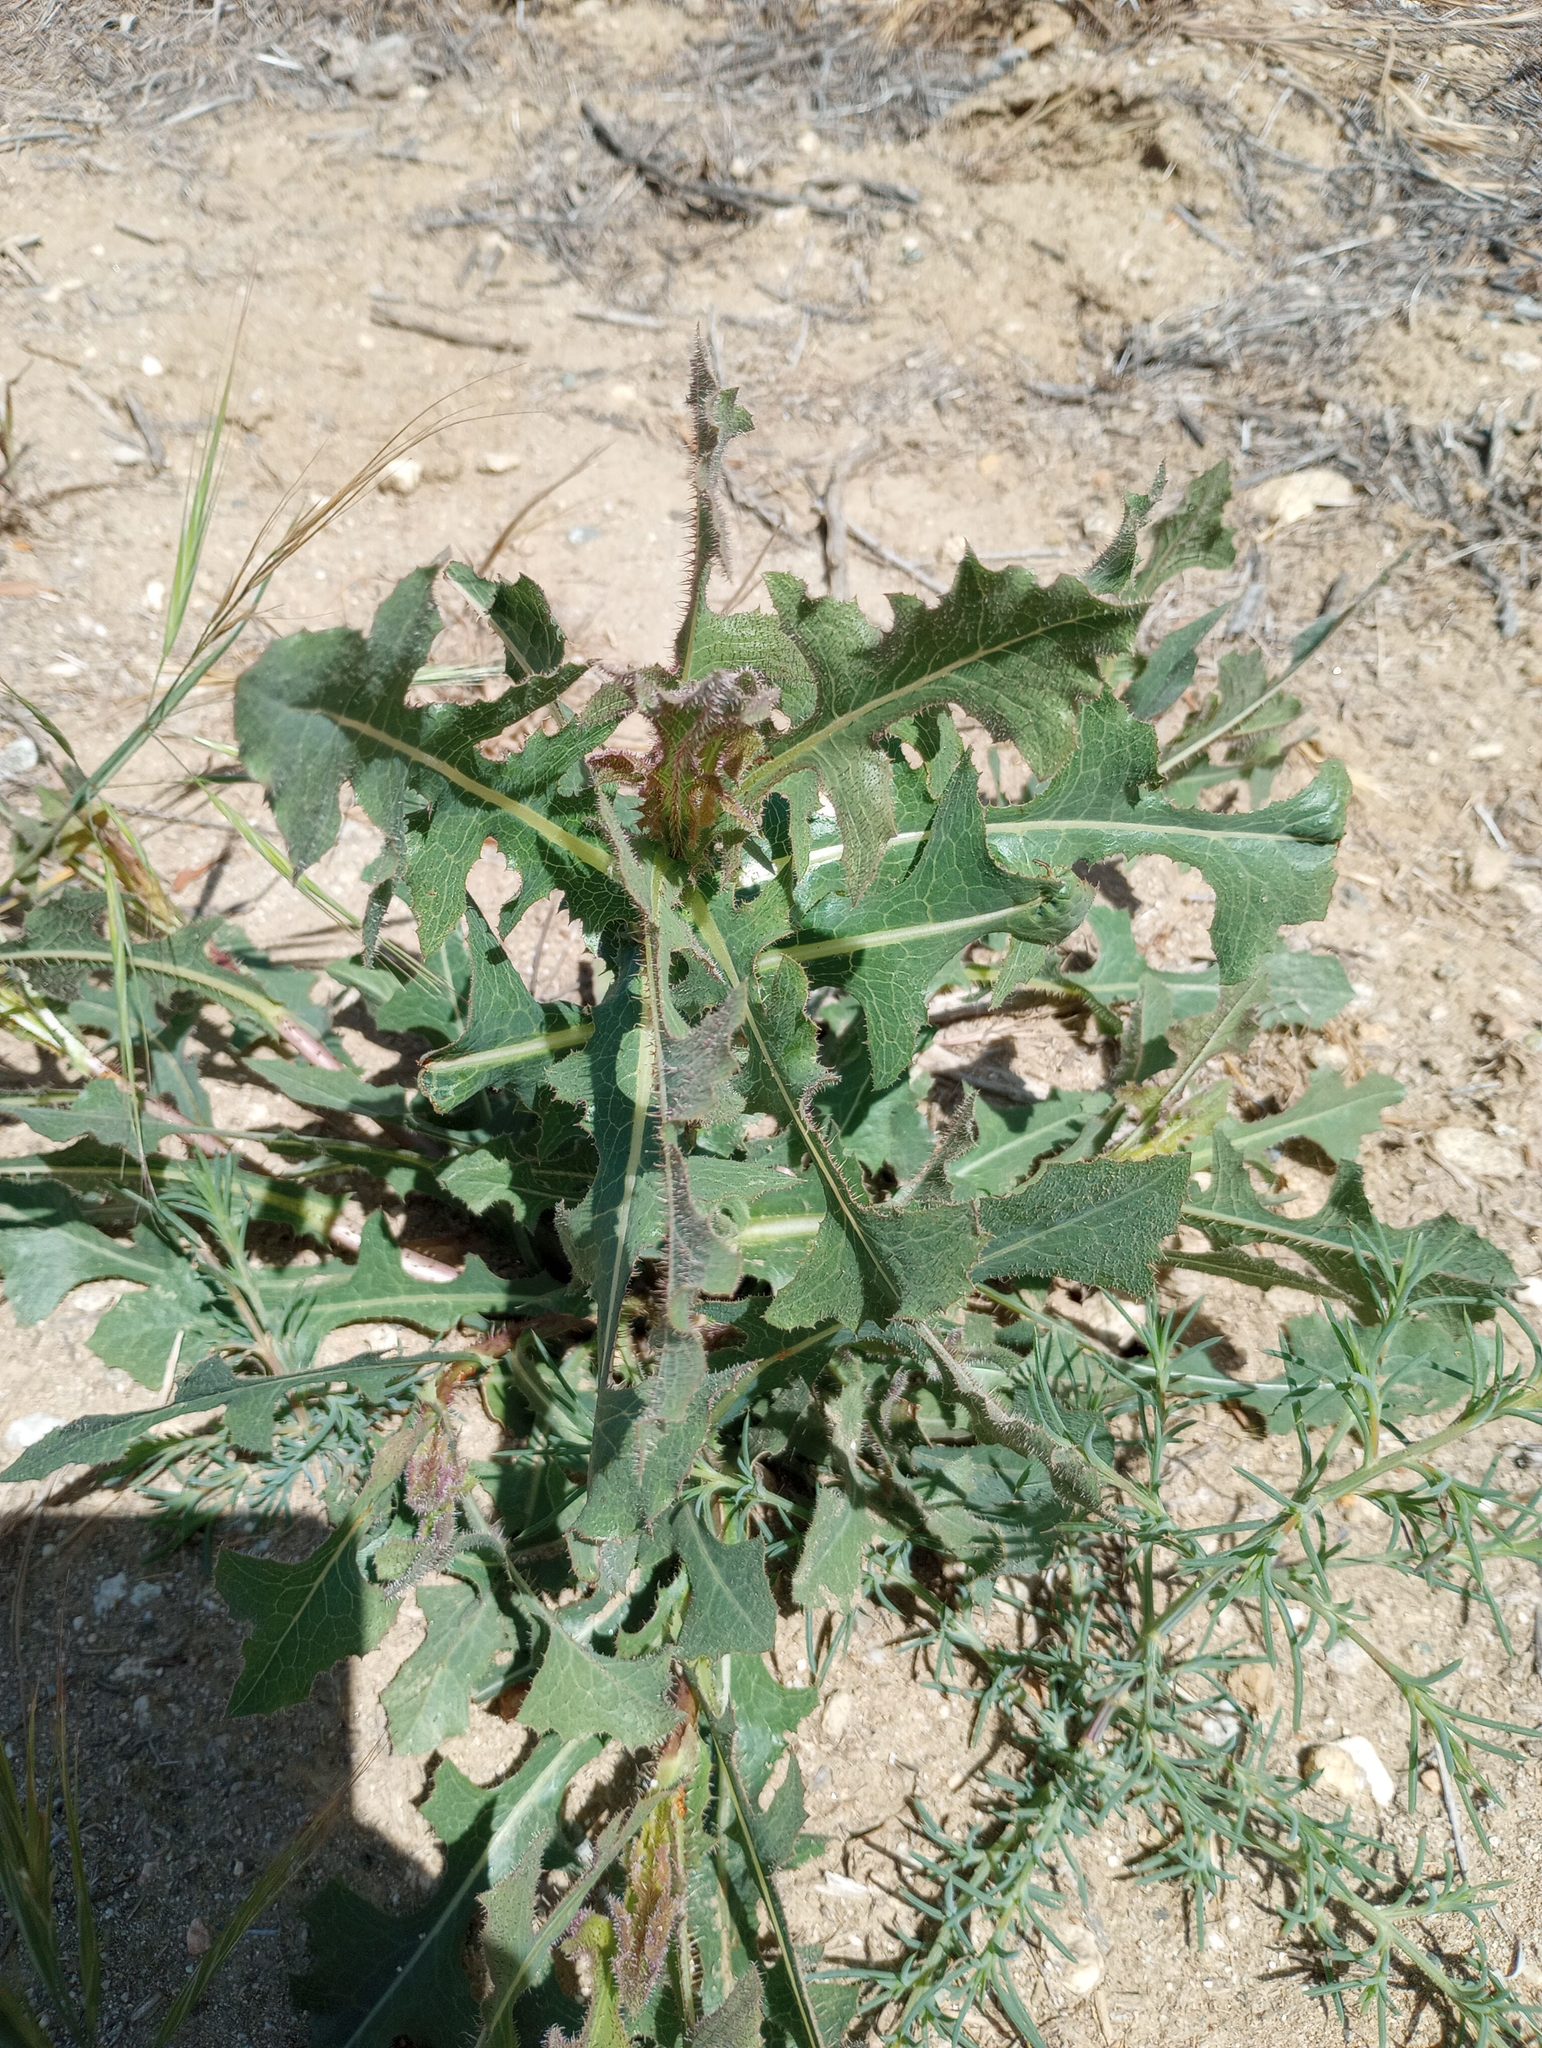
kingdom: Plantae
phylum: Tracheophyta
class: Magnoliopsida
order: Asterales
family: Asteraceae
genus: Lactuca
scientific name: Lactuca serriola
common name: Prickly lettuce
